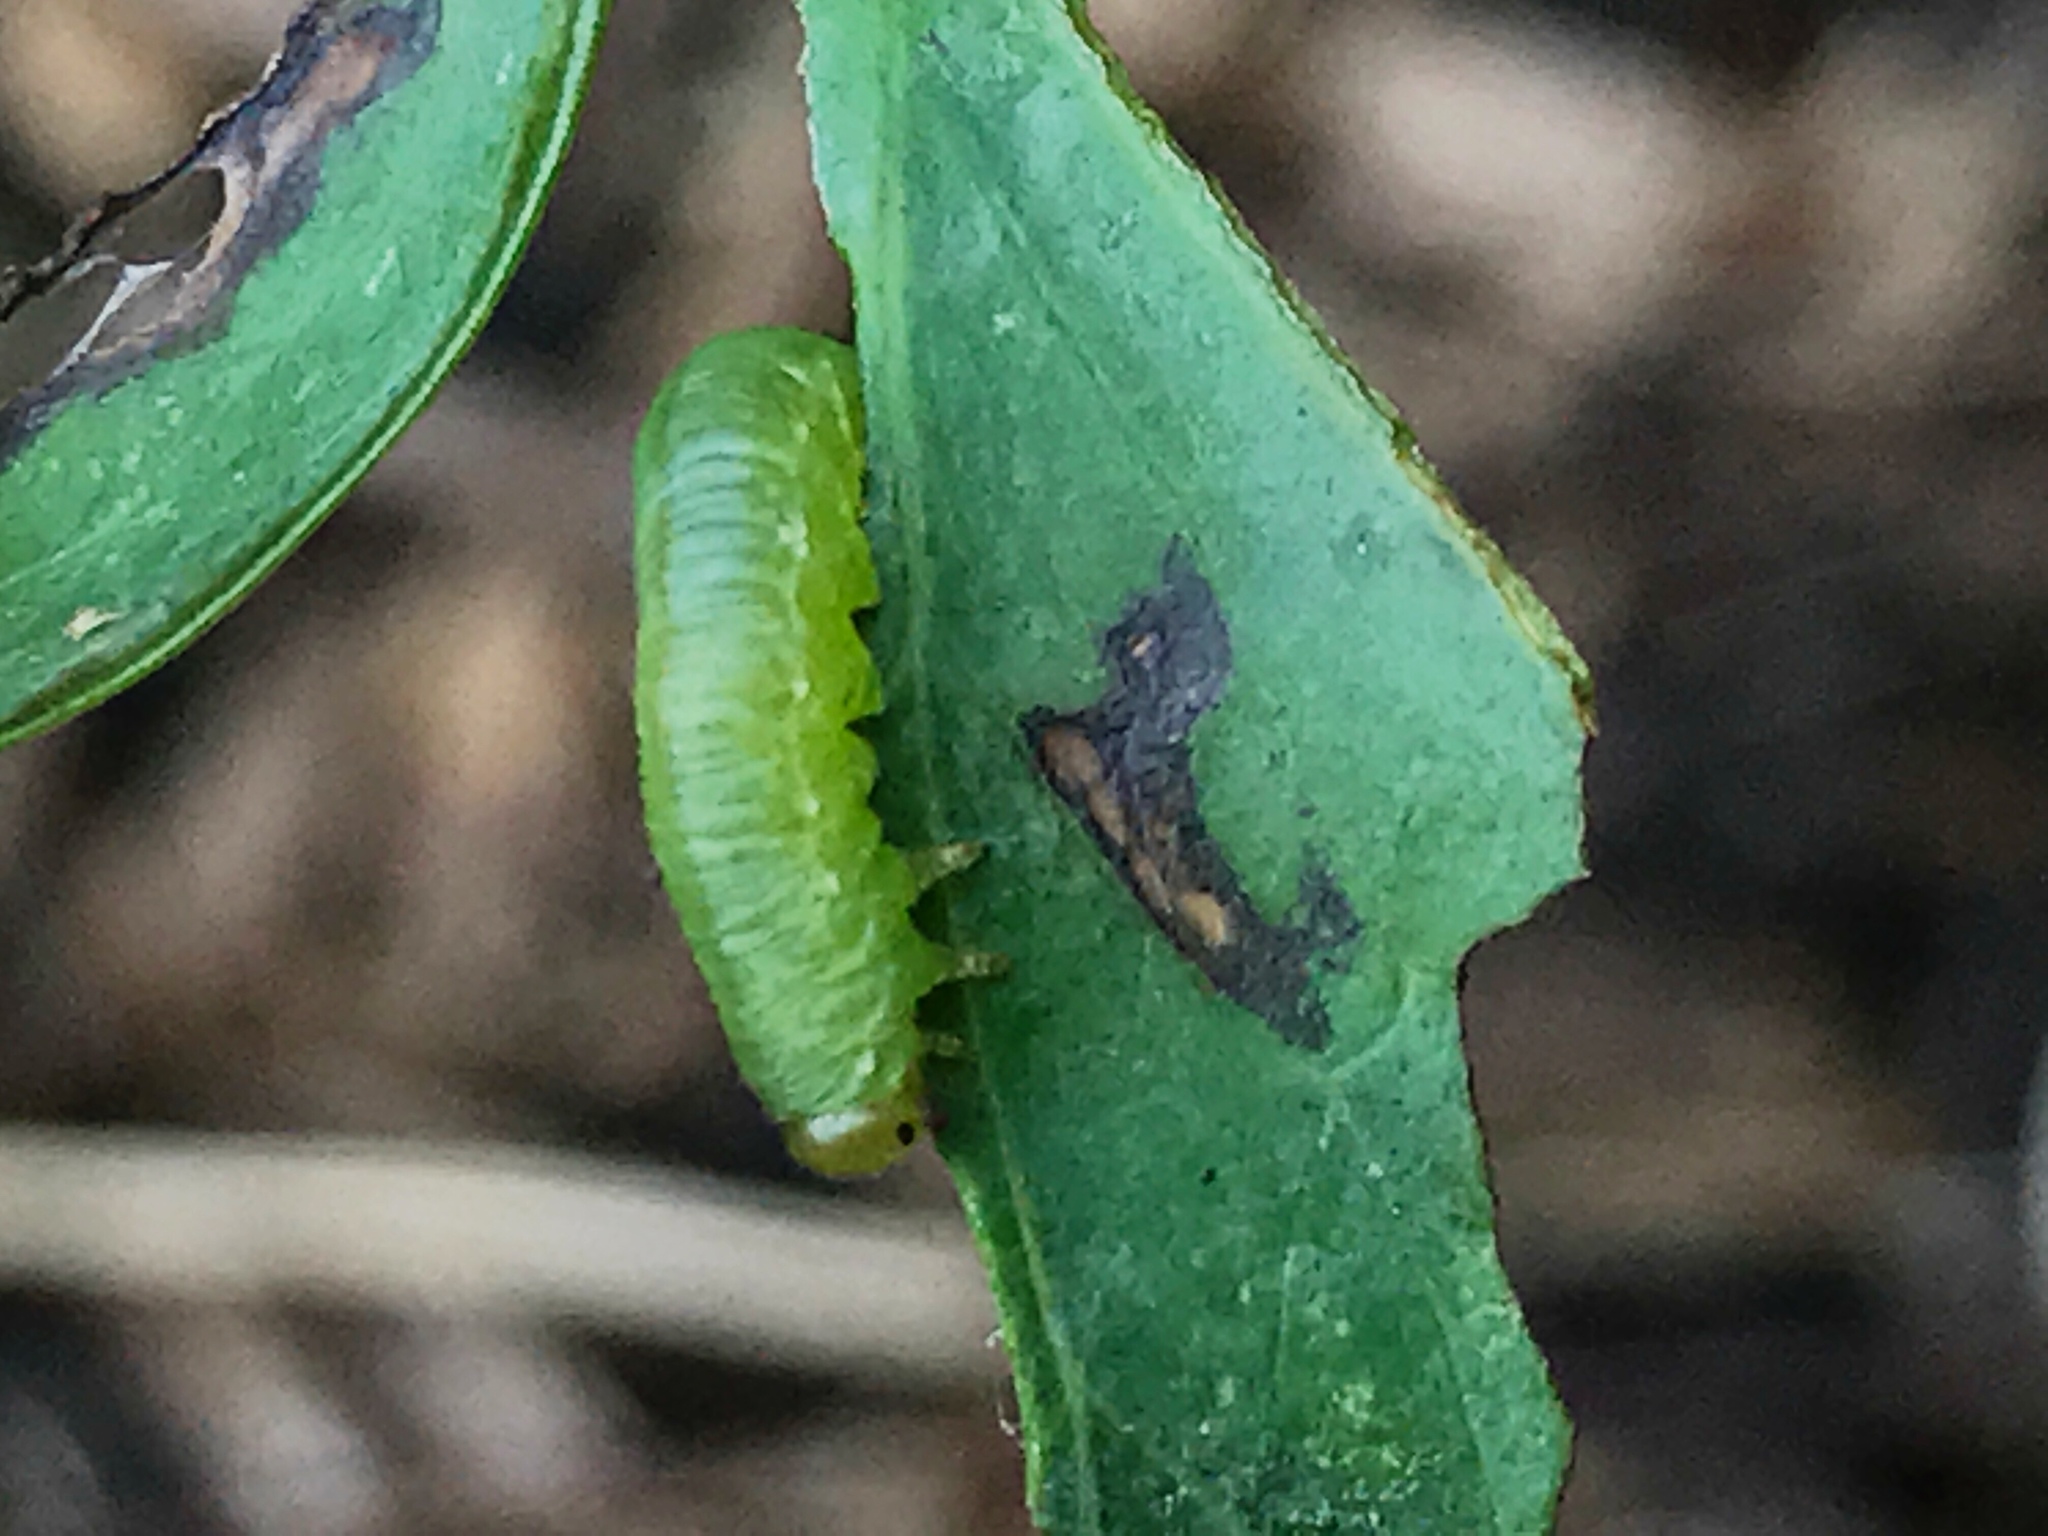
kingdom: Animalia
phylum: Arthropoda
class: Insecta
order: Hymenoptera
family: Tenthredinidae
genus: Pristiphora
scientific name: Pristiphora rufipes
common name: Sawfly
